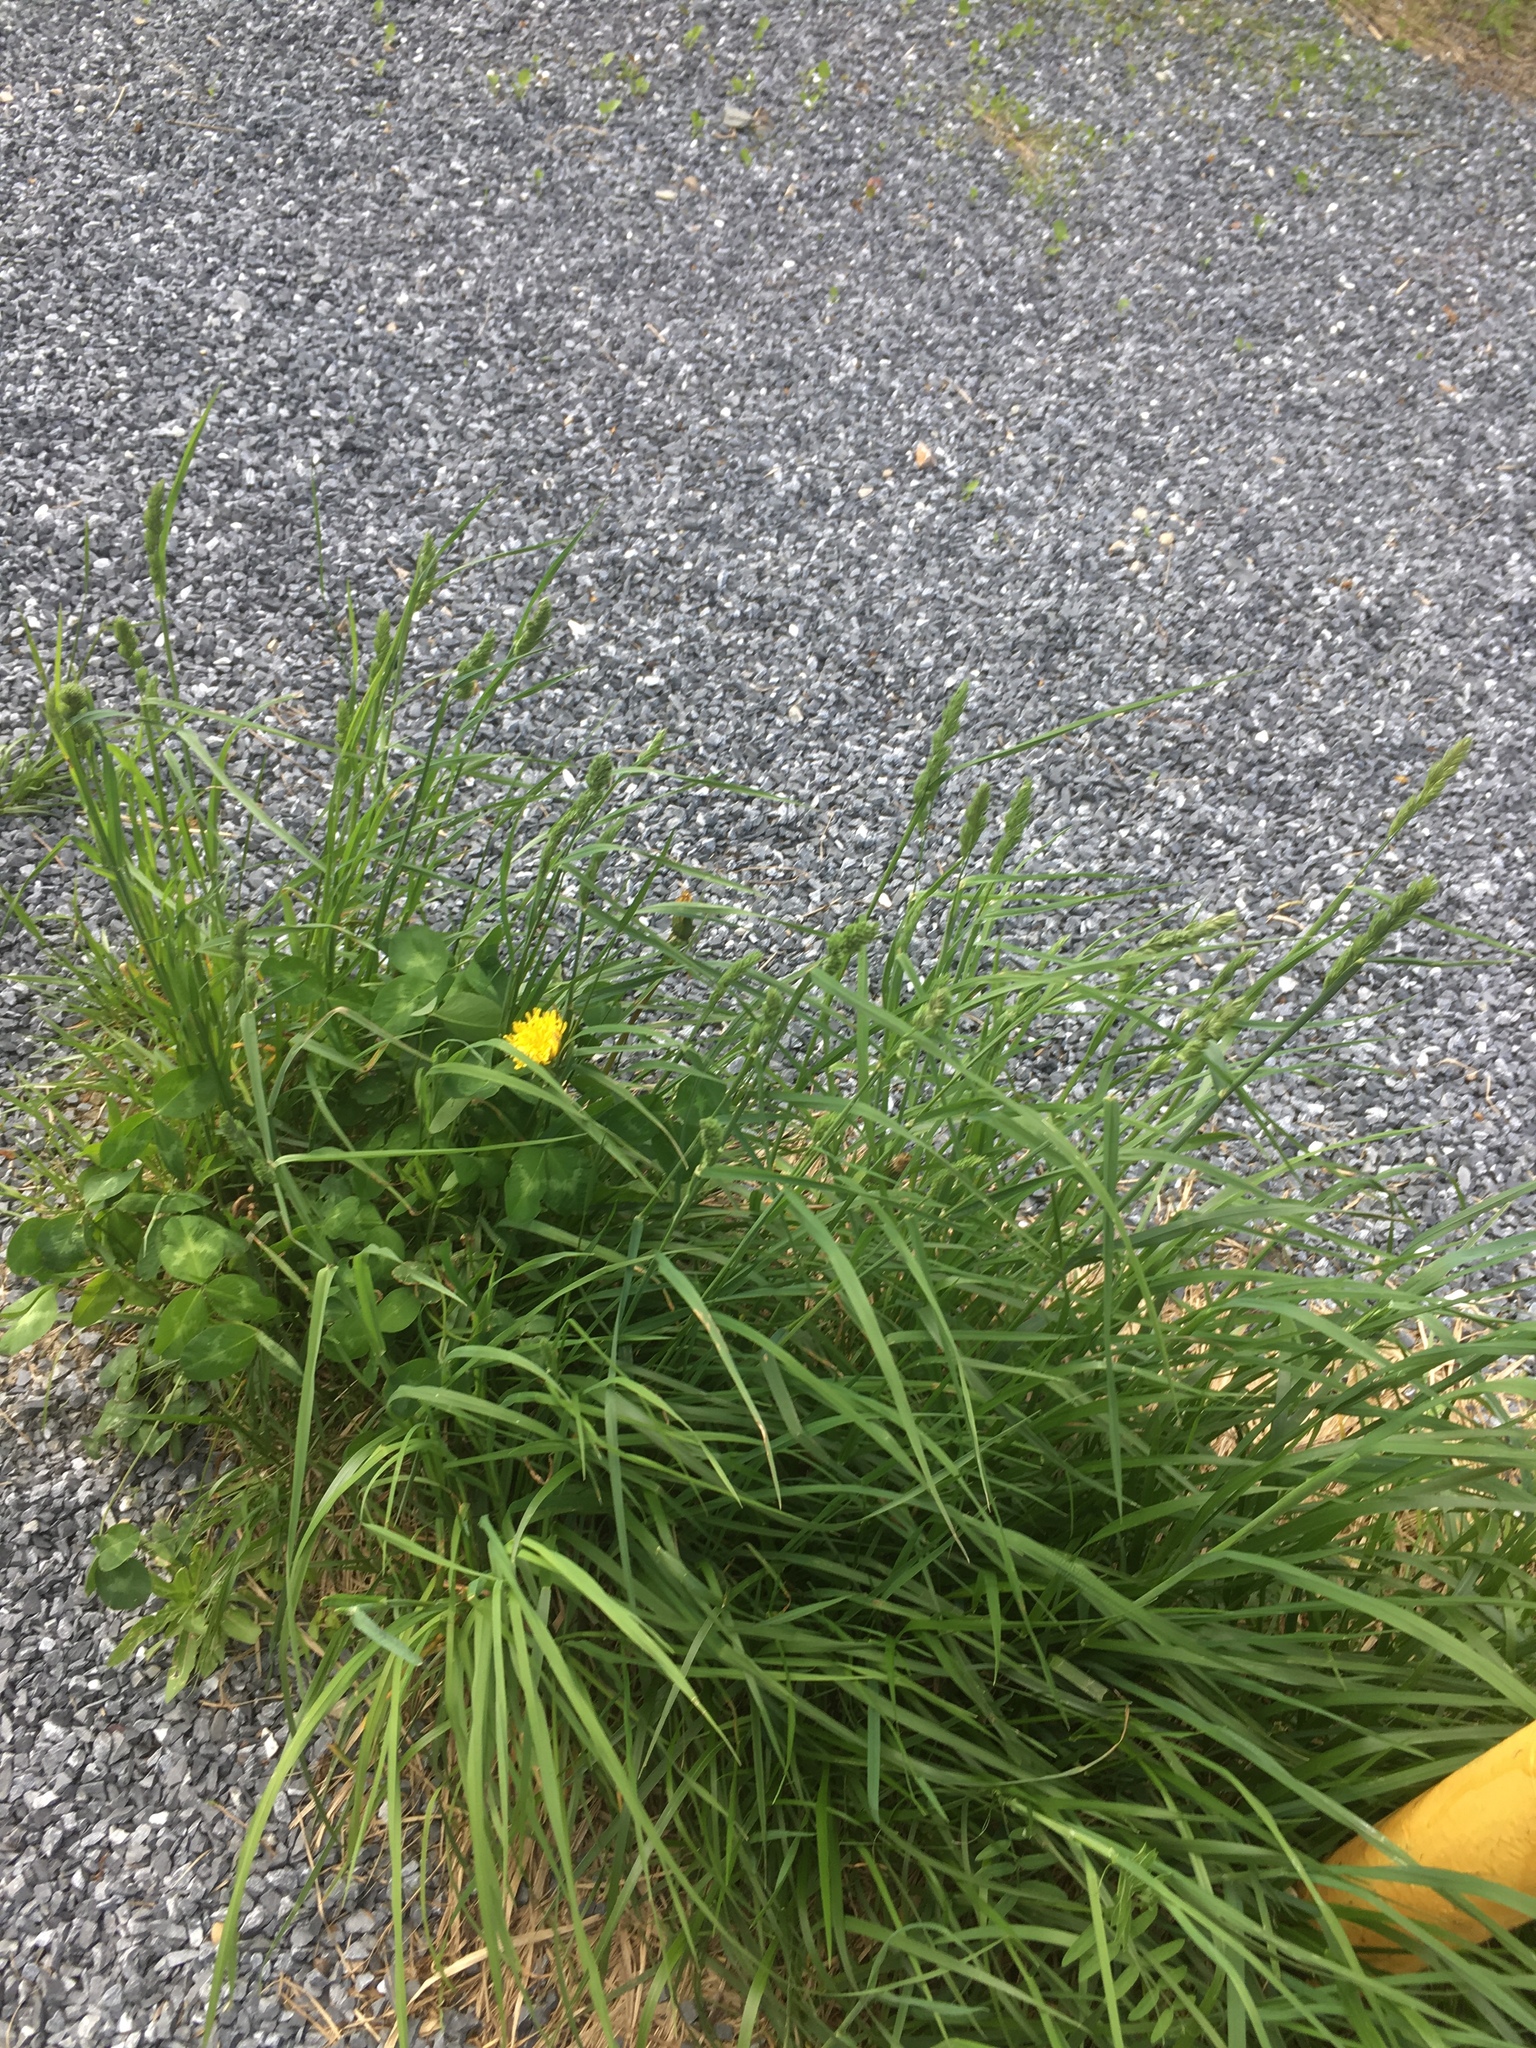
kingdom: Plantae
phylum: Tracheophyta
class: Liliopsida
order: Poales
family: Poaceae
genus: Dactylis
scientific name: Dactylis glomerata
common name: Orchardgrass
